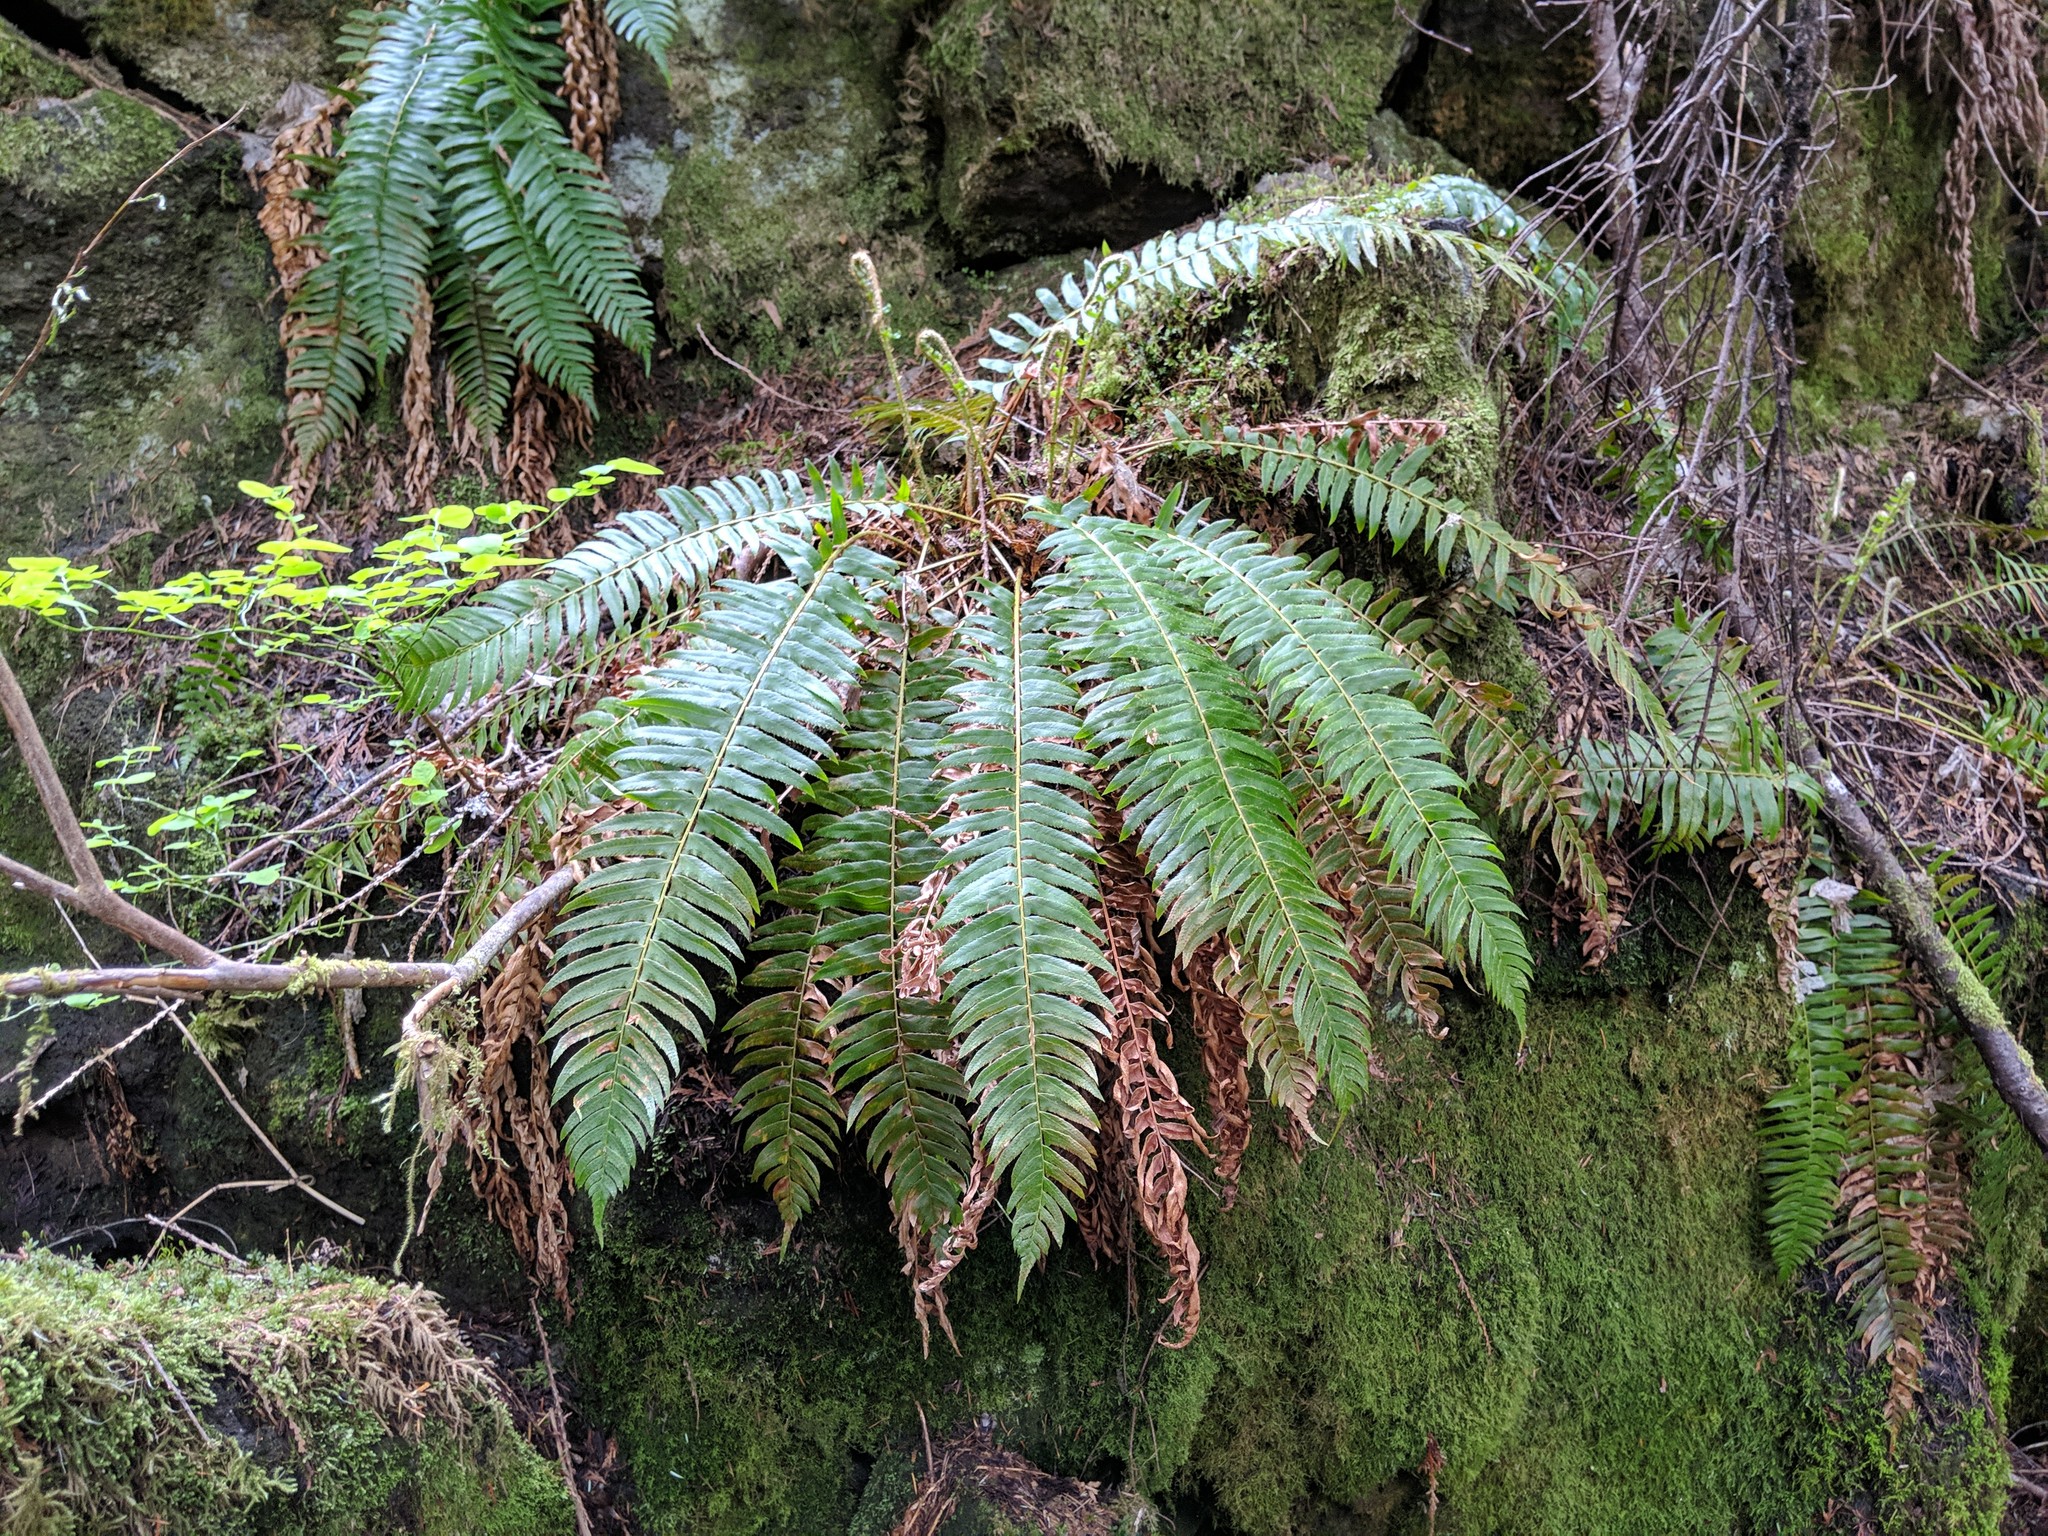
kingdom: Plantae
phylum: Tracheophyta
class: Polypodiopsida
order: Polypodiales
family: Dryopteridaceae
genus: Polystichum
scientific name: Polystichum munitum
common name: Western sword-fern
